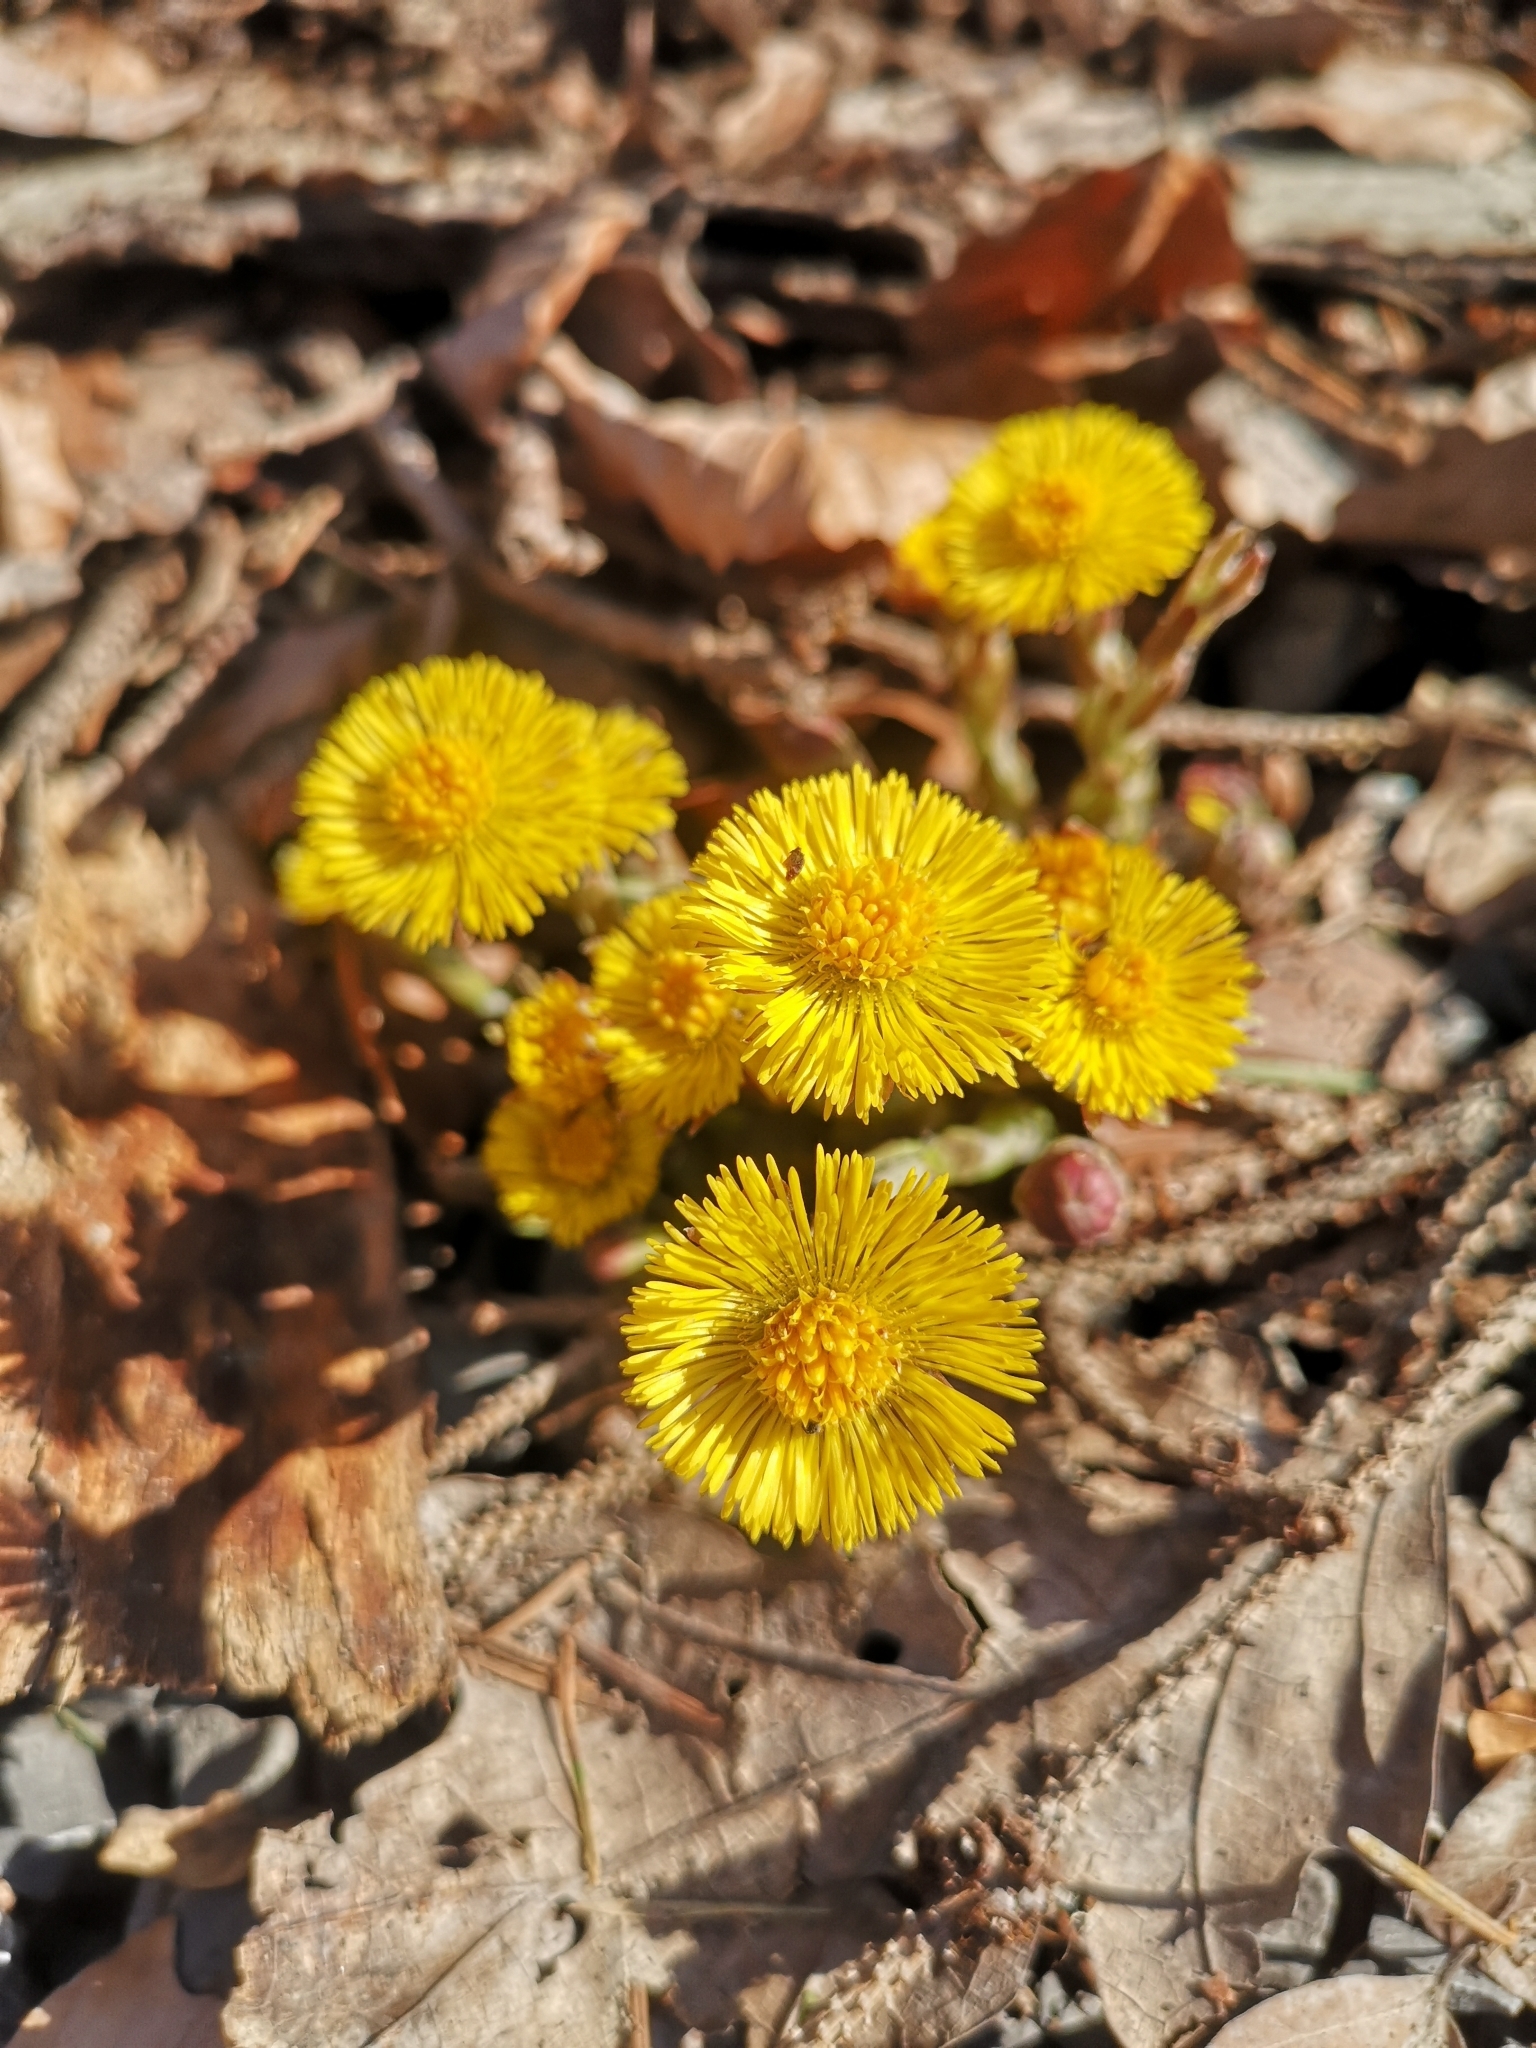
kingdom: Plantae
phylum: Tracheophyta
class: Magnoliopsida
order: Asterales
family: Asteraceae
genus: Tussilago
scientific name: Tussilago farfara
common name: Coltsfoot
